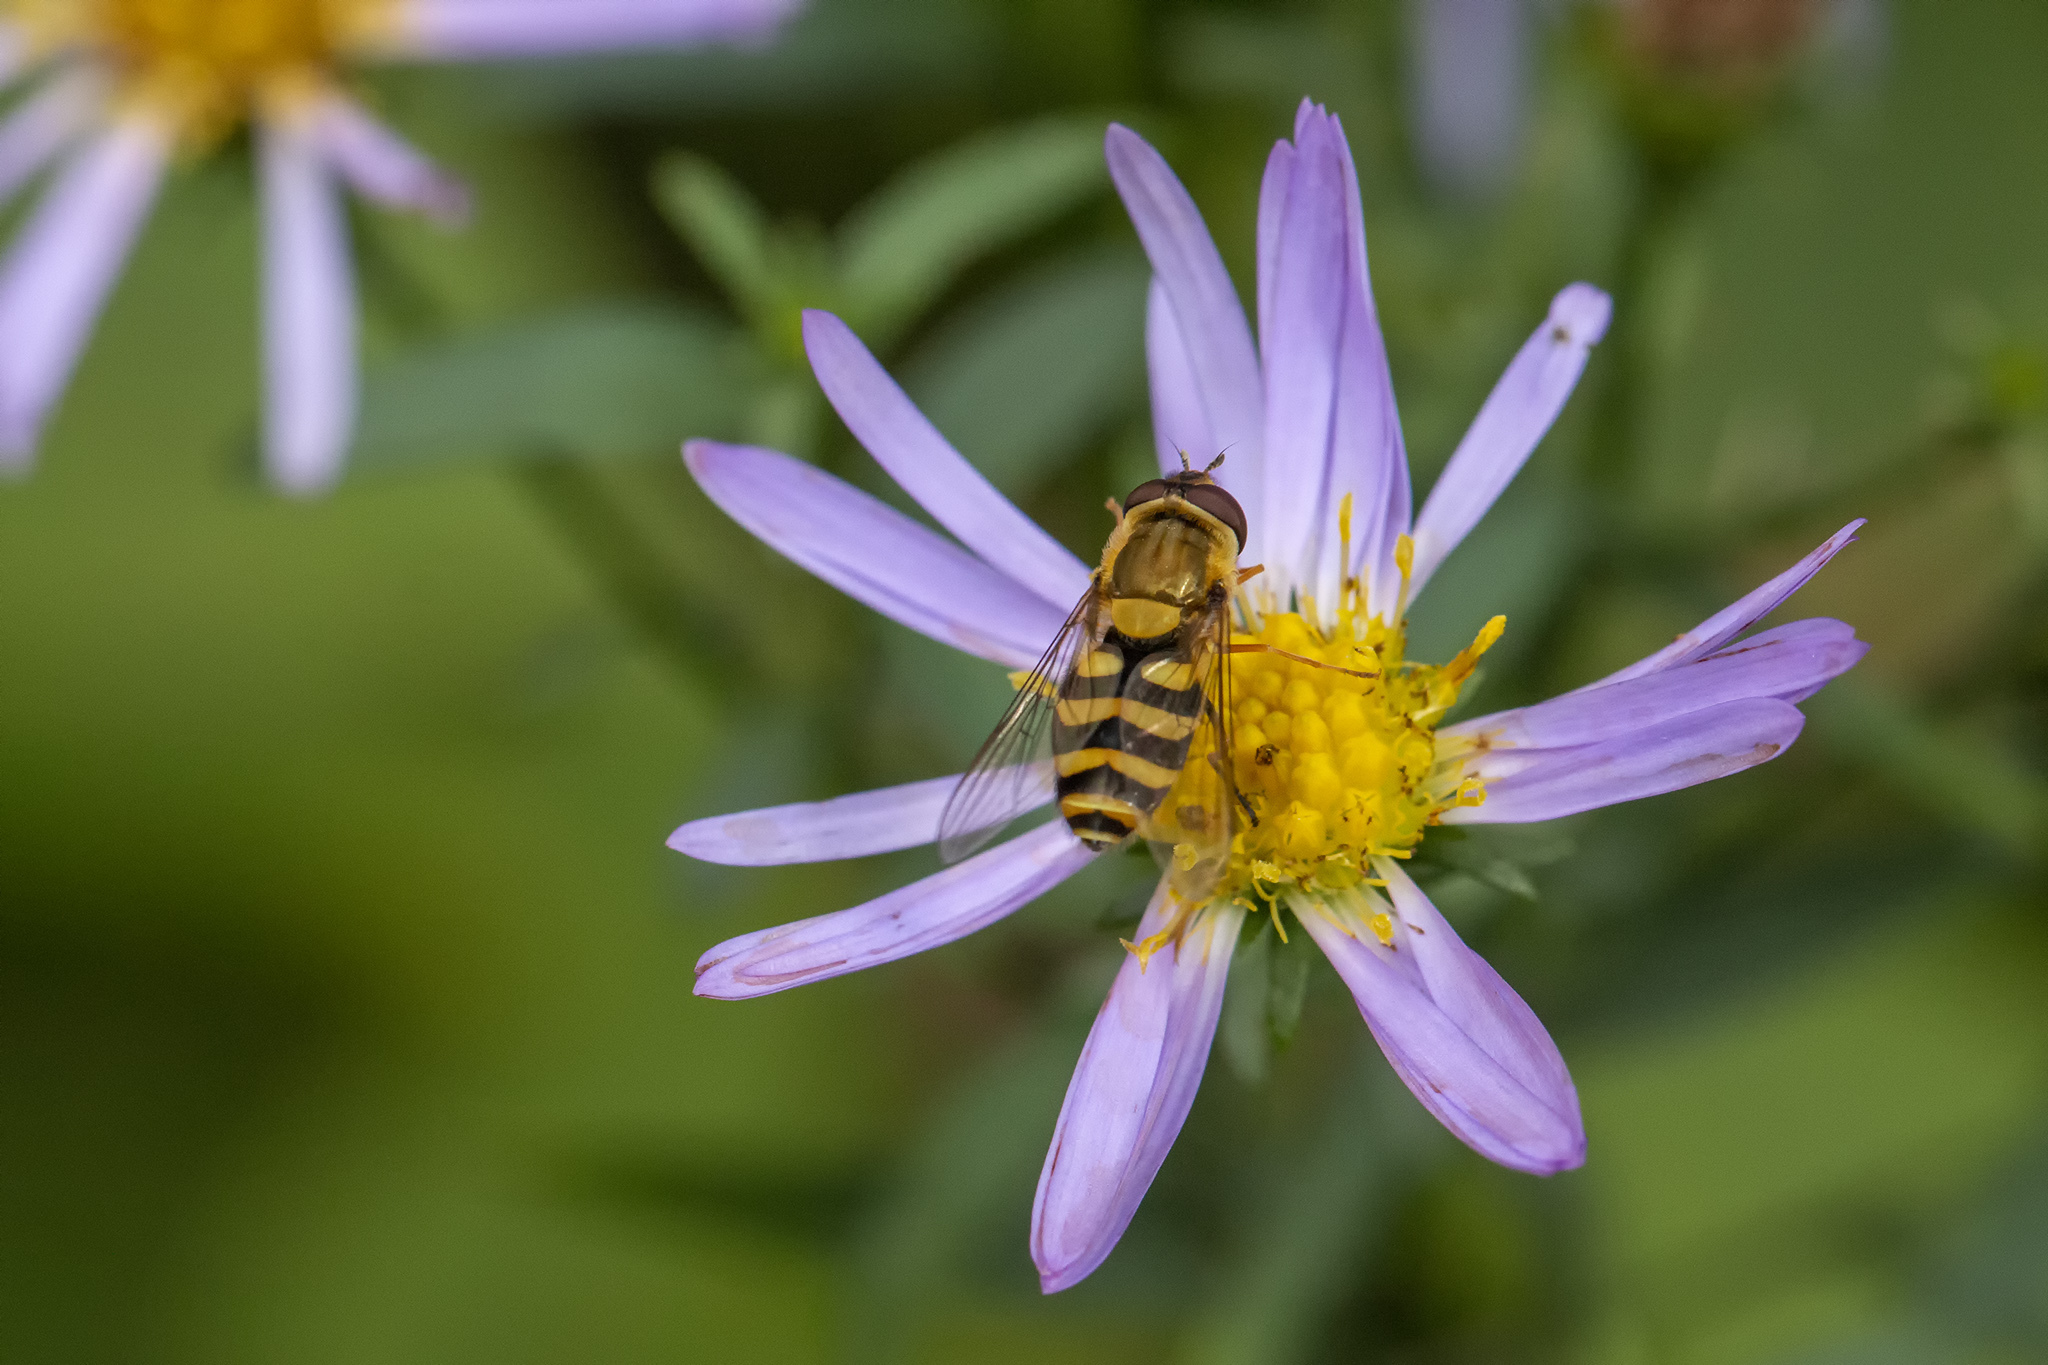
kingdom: Animalia
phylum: Arthropoda
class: Insecta
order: Diptera
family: Syrphidae
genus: Syrphus
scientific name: Syrphus
